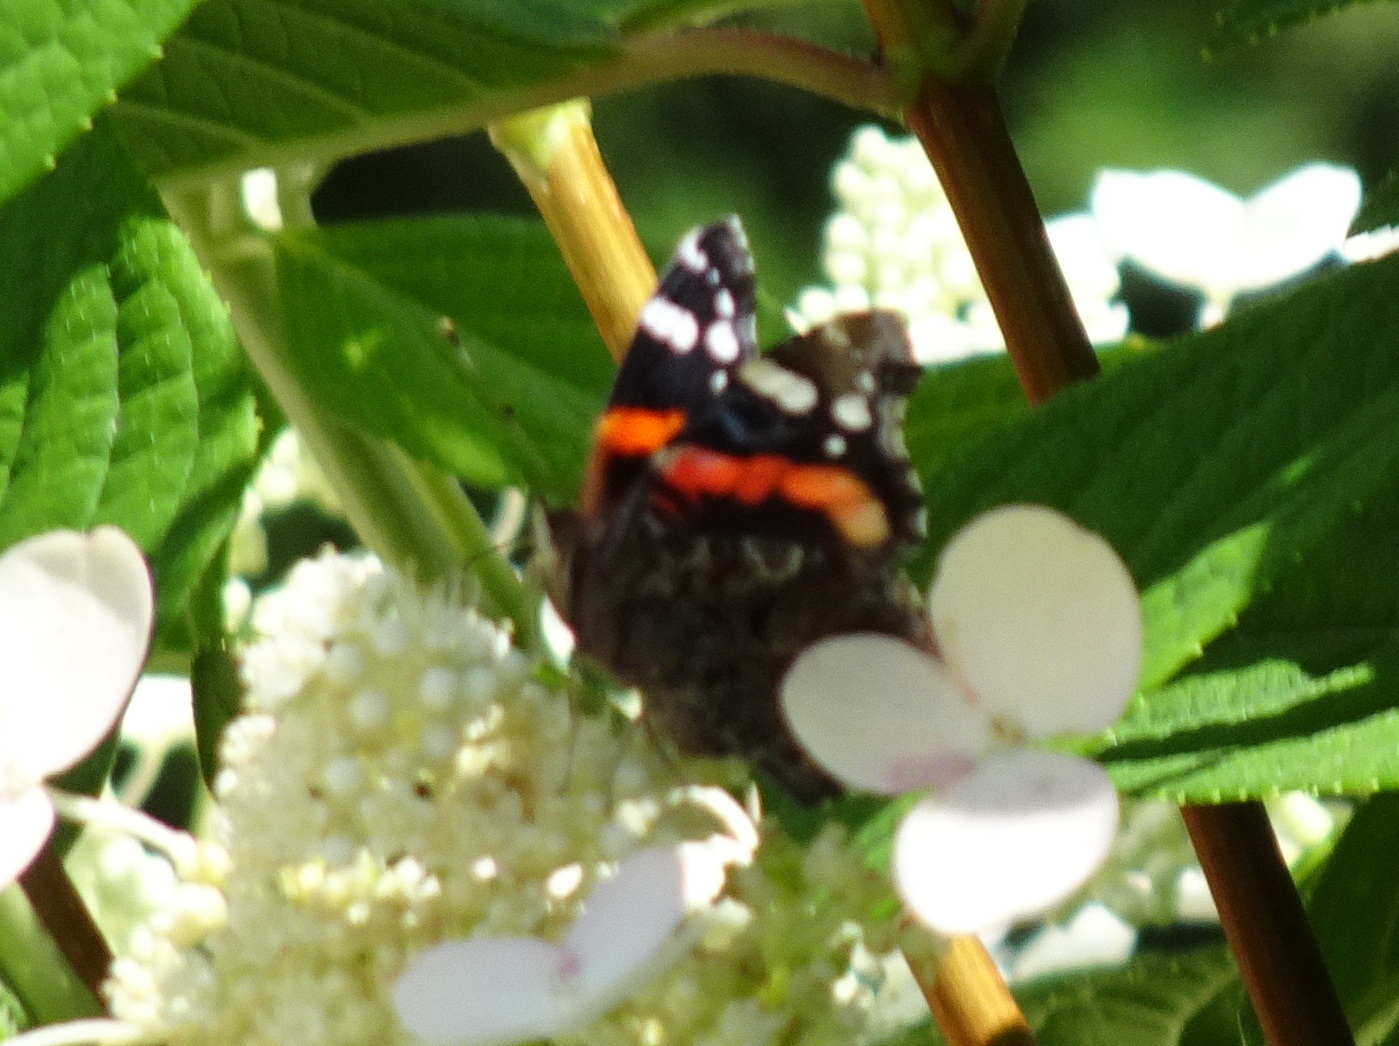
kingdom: Animalia
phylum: Arthropoda
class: Insecta
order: Lepidoptera
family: Nymphalidae
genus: Vanessa
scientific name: Vanessa atalanta
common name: Red admiral
